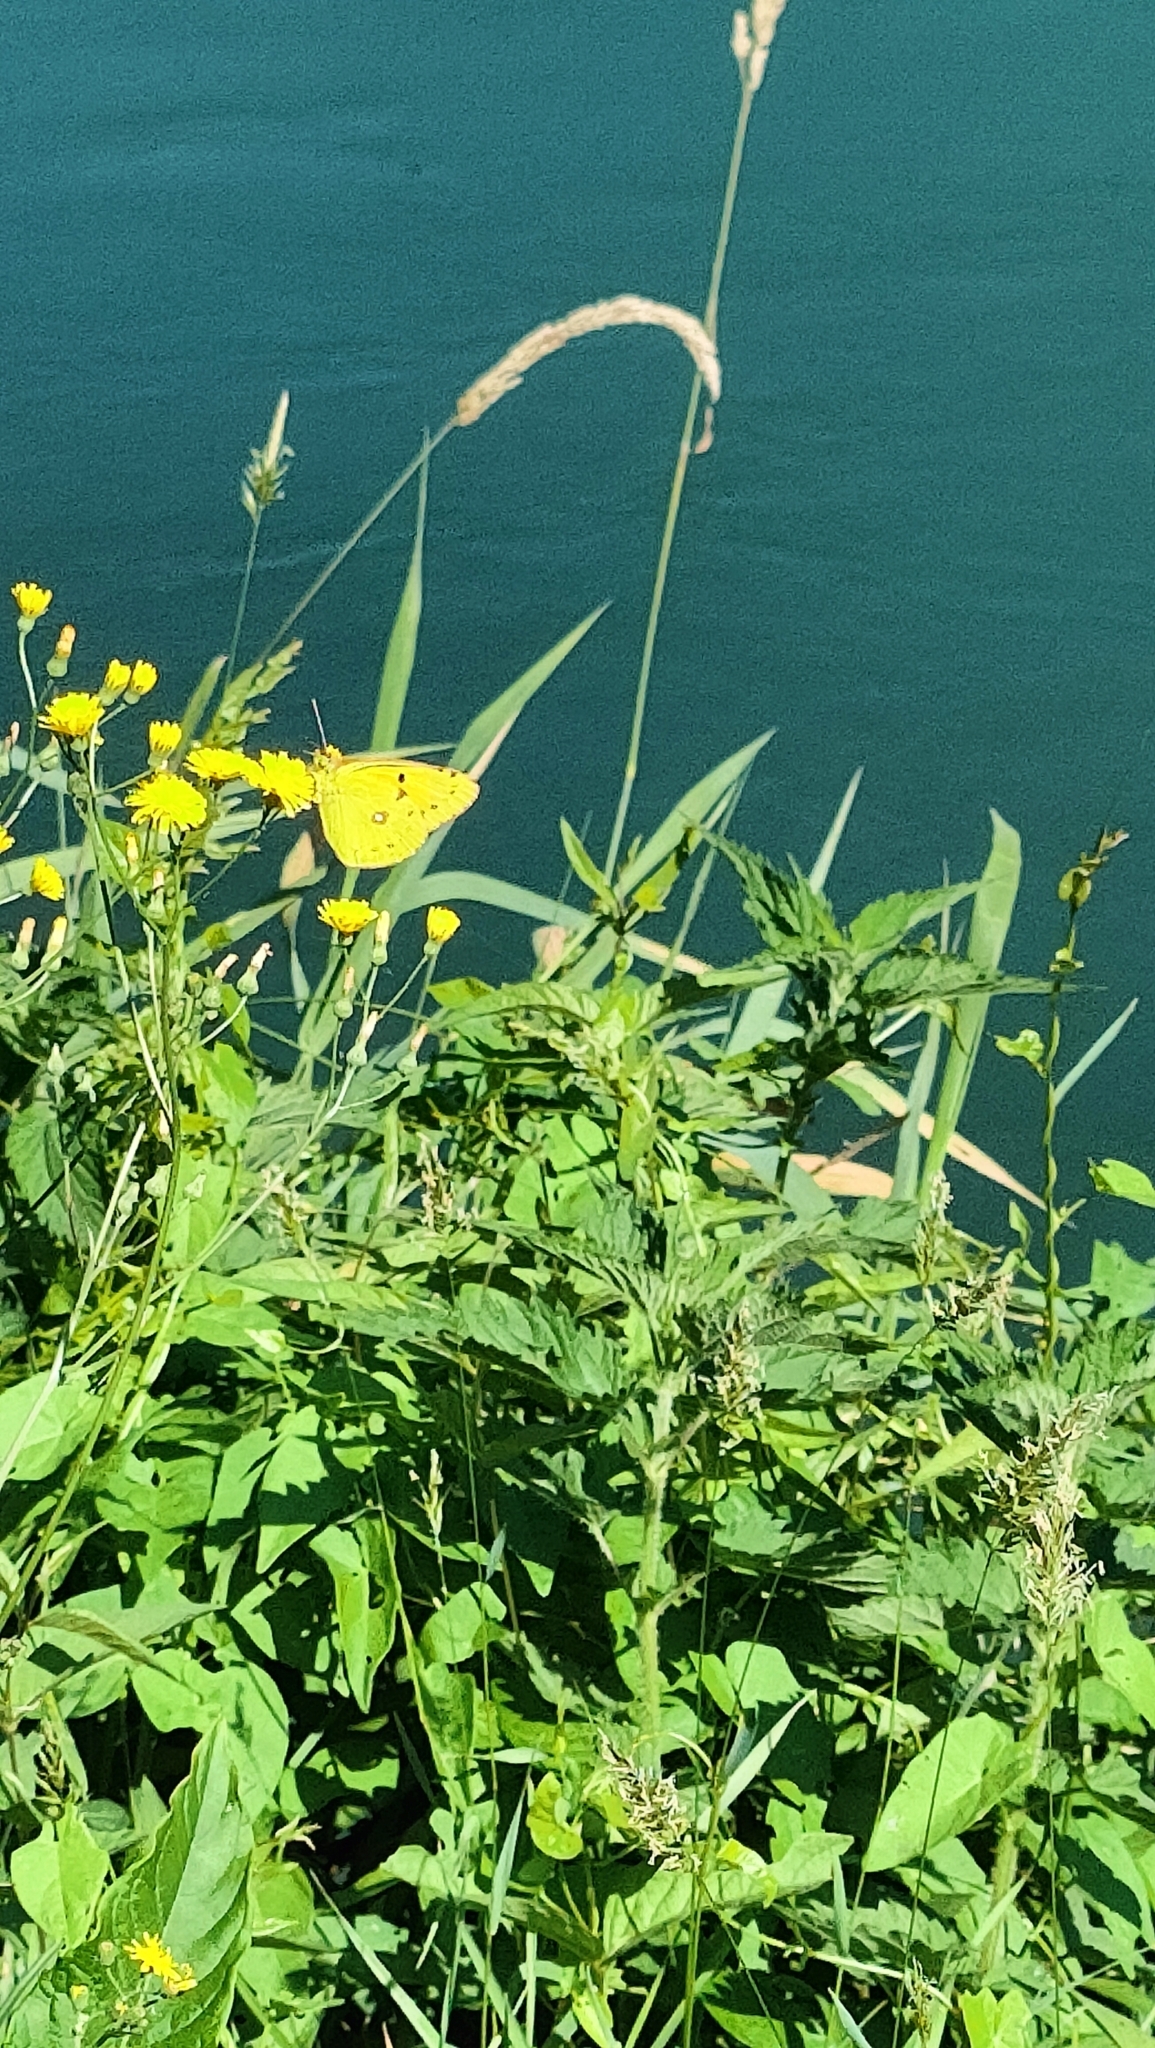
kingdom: Animalia
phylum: Arthropoda
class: Insecta
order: Lepidoptera
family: Pieridae
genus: Colias
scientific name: Colias croceus
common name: Clouded yellow
